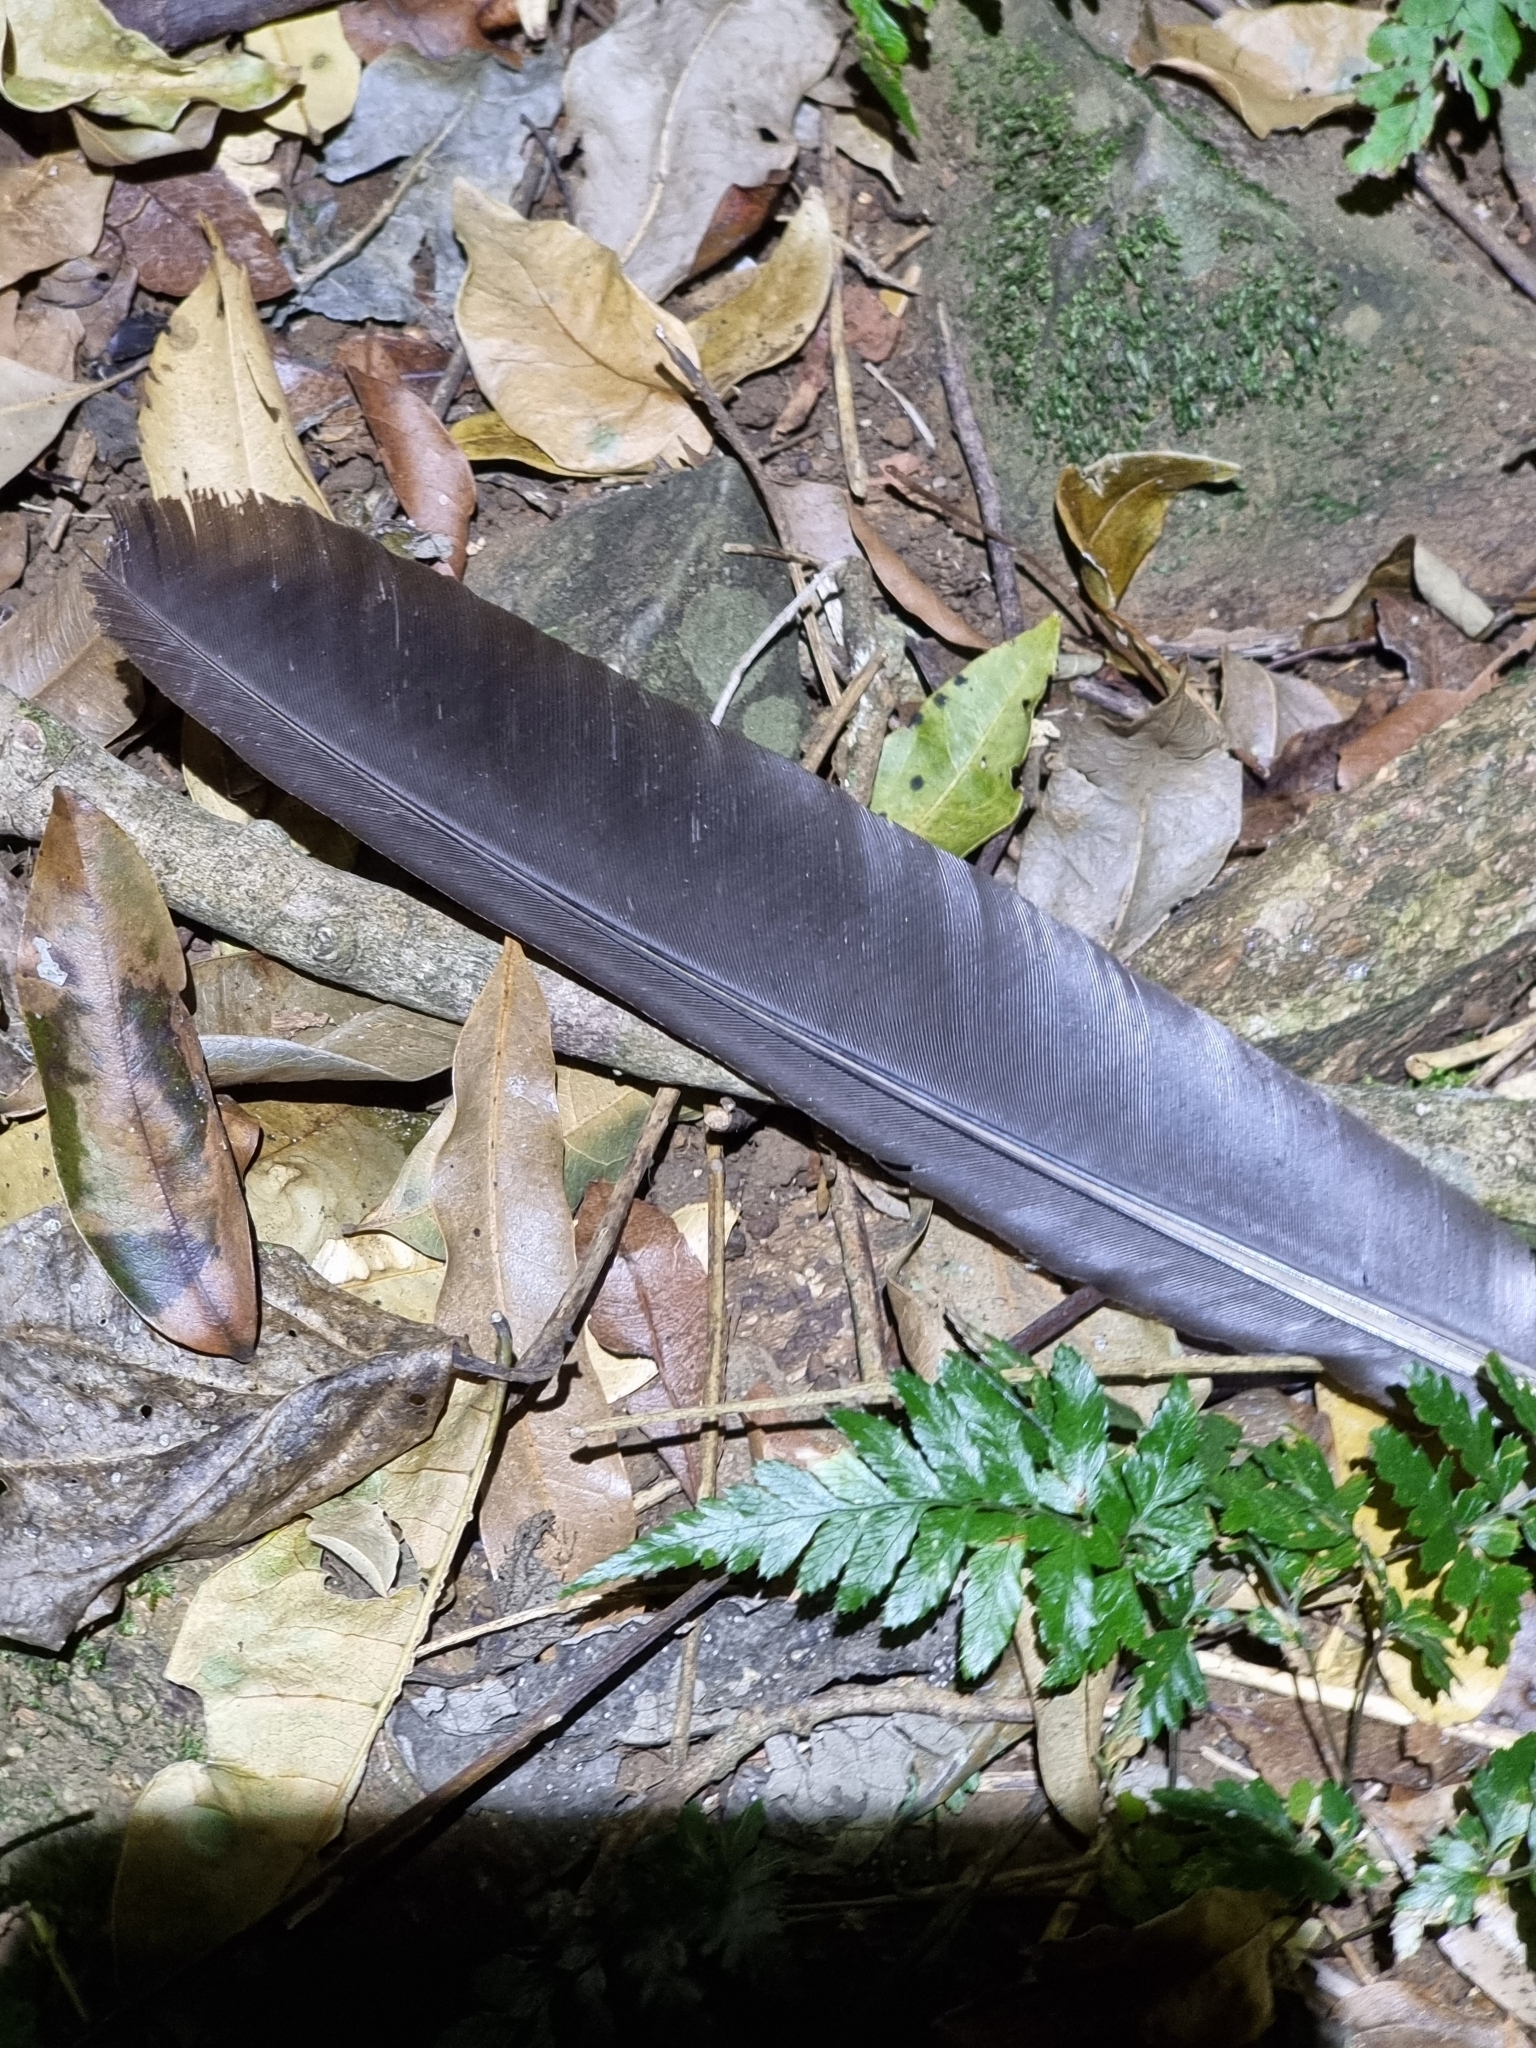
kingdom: Animalia
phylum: Chordata
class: Aves
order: Columbiformes
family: Columbidae
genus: Ptilinopus
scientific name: Ptilinopus magnificus
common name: Wompoo fruit dove
